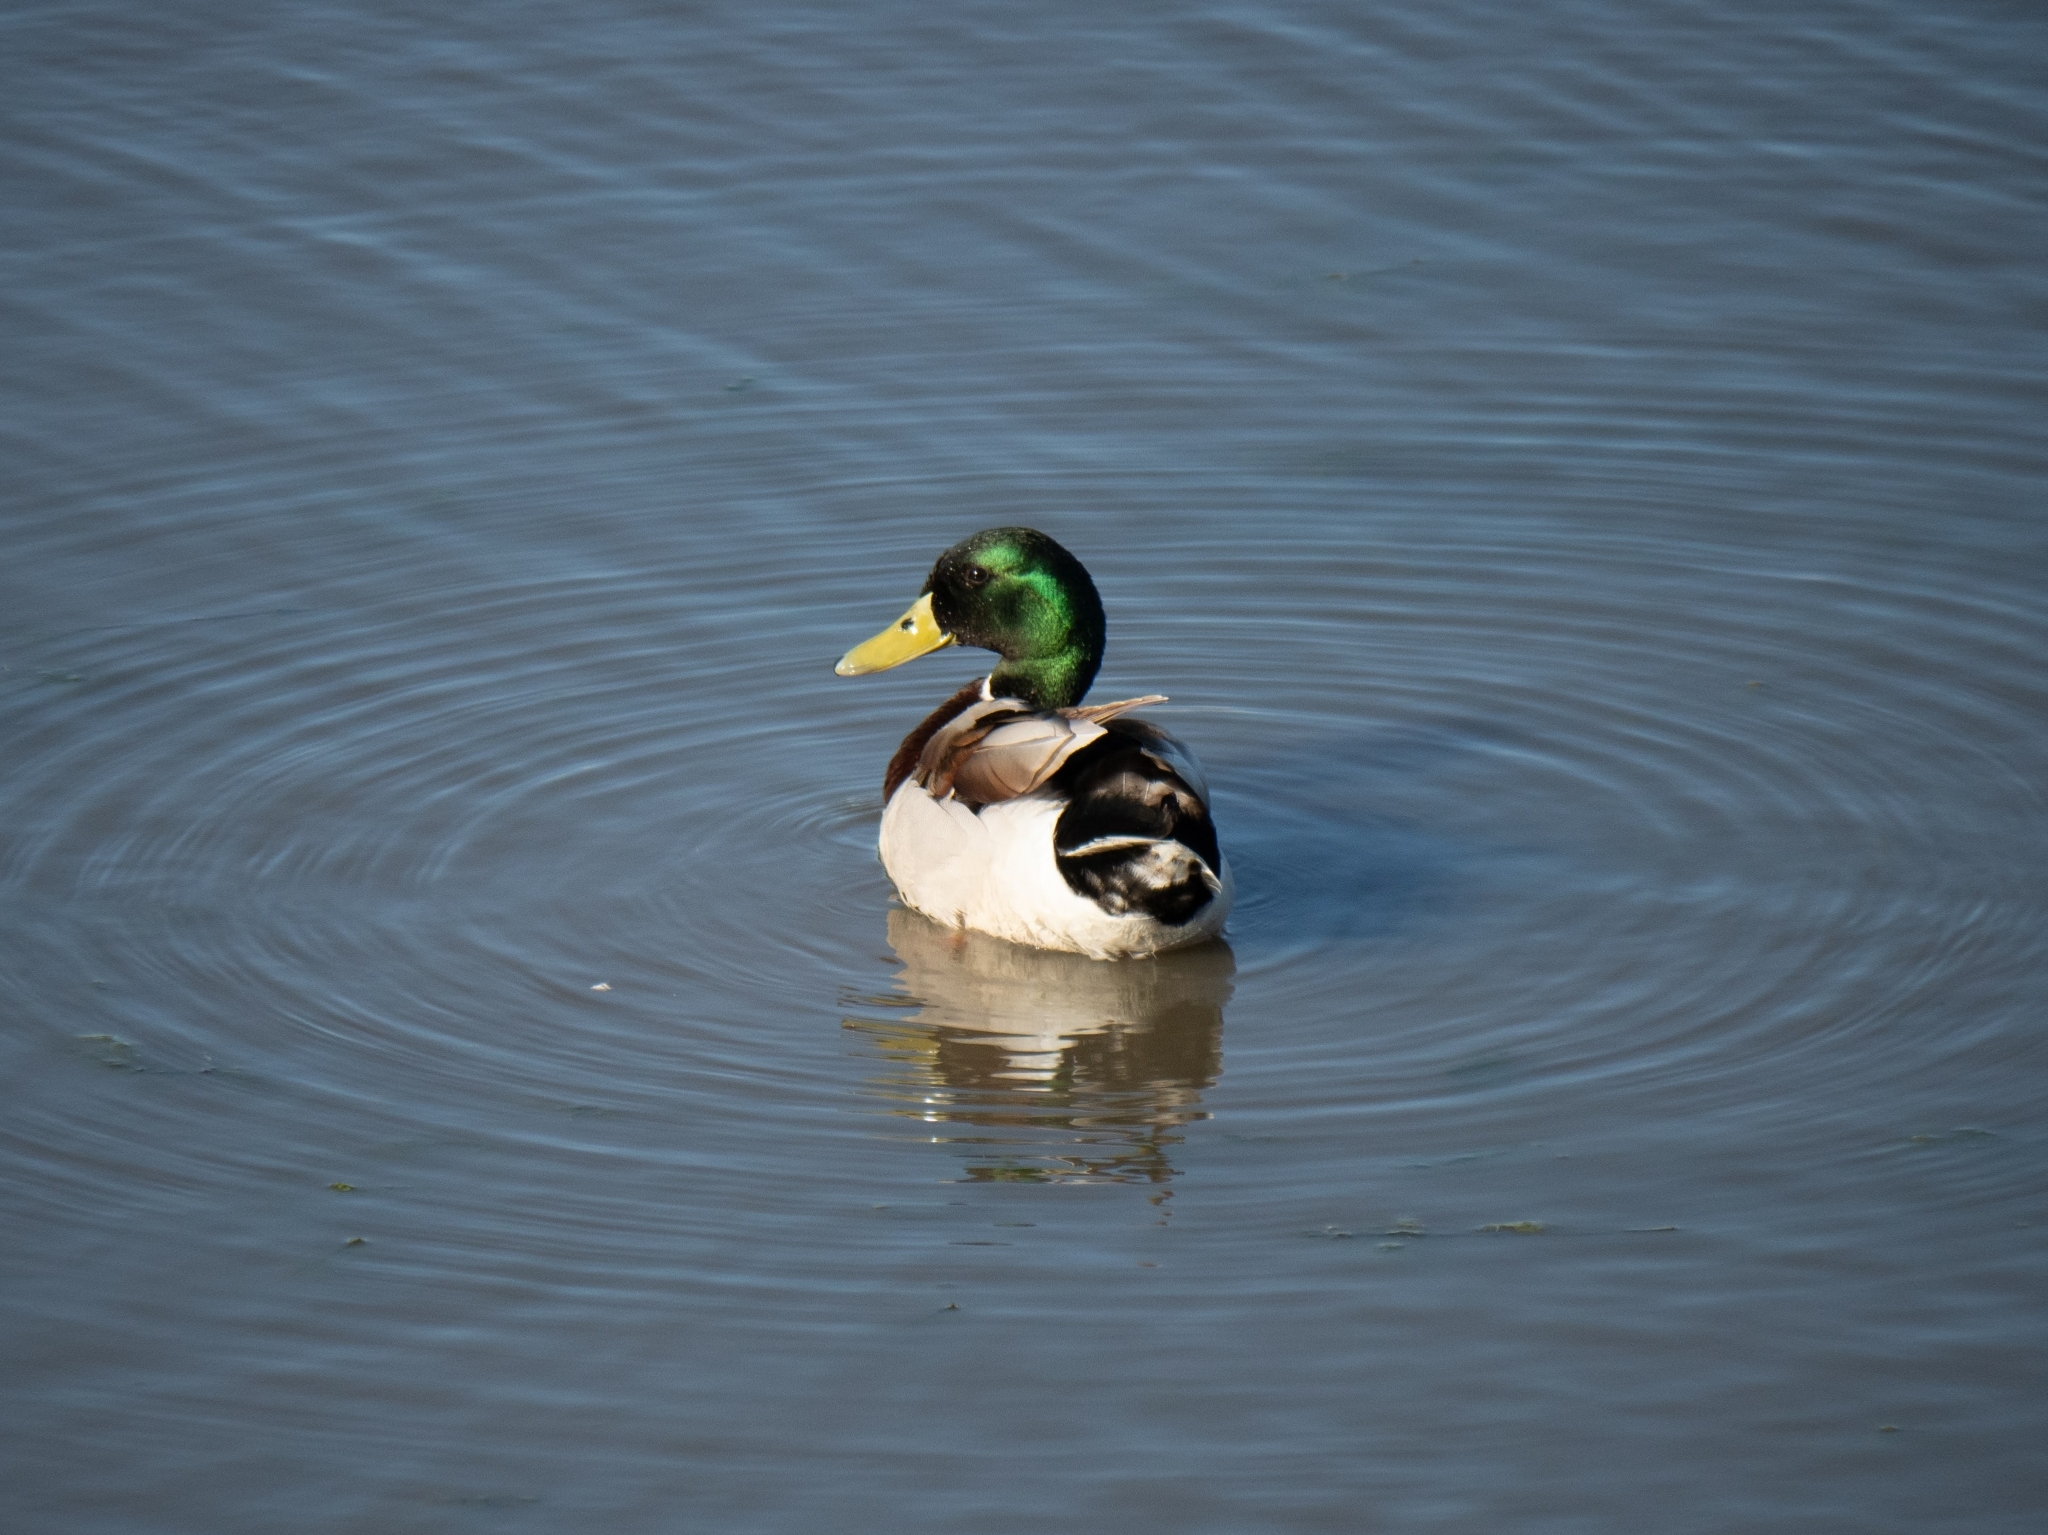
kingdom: Animalia
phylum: Chordata
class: Aves
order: Anseriformes
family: Anatidae
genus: Anas
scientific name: Anas platyrhynchos
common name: Mallard
